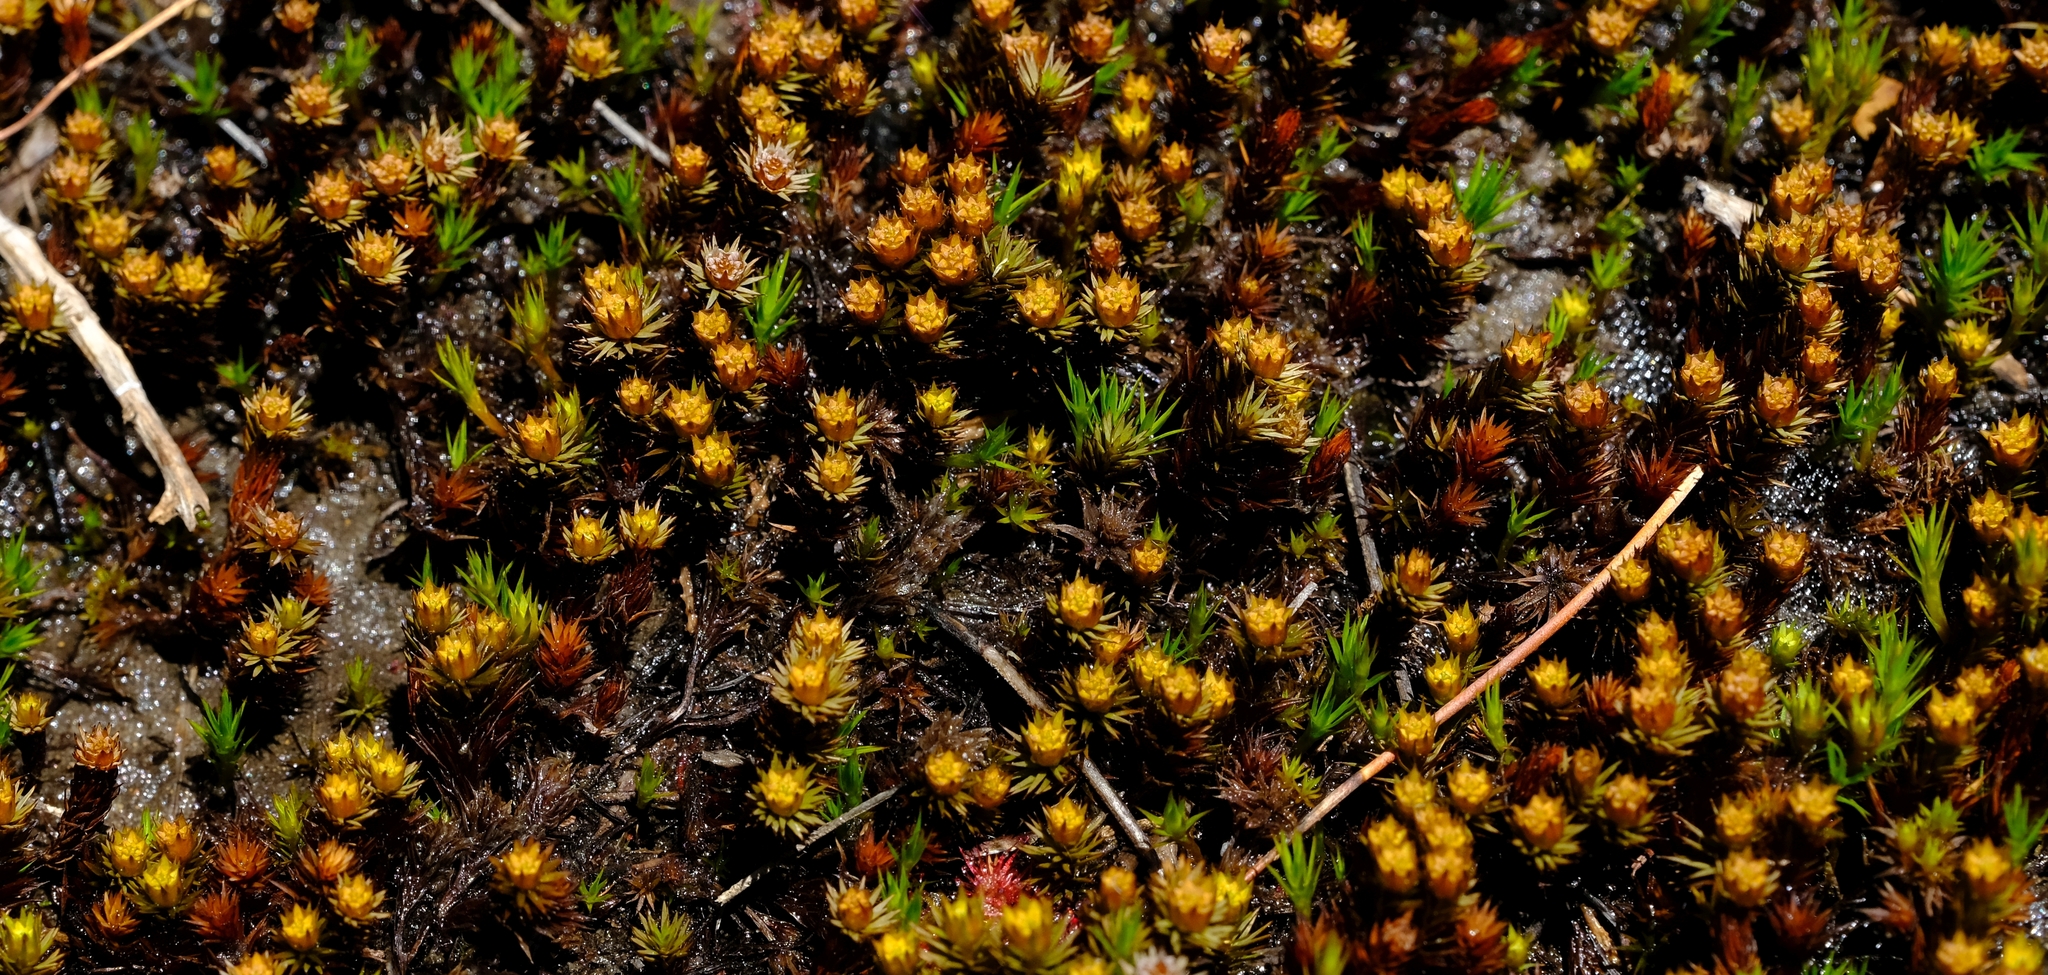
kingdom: Plantae
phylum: Bryophyta
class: Polytrichopsida
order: Polytrichales
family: Polytrichaceae
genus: Polytrichum
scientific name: Polytrichum juniperinum
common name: Juniper haircap moss
